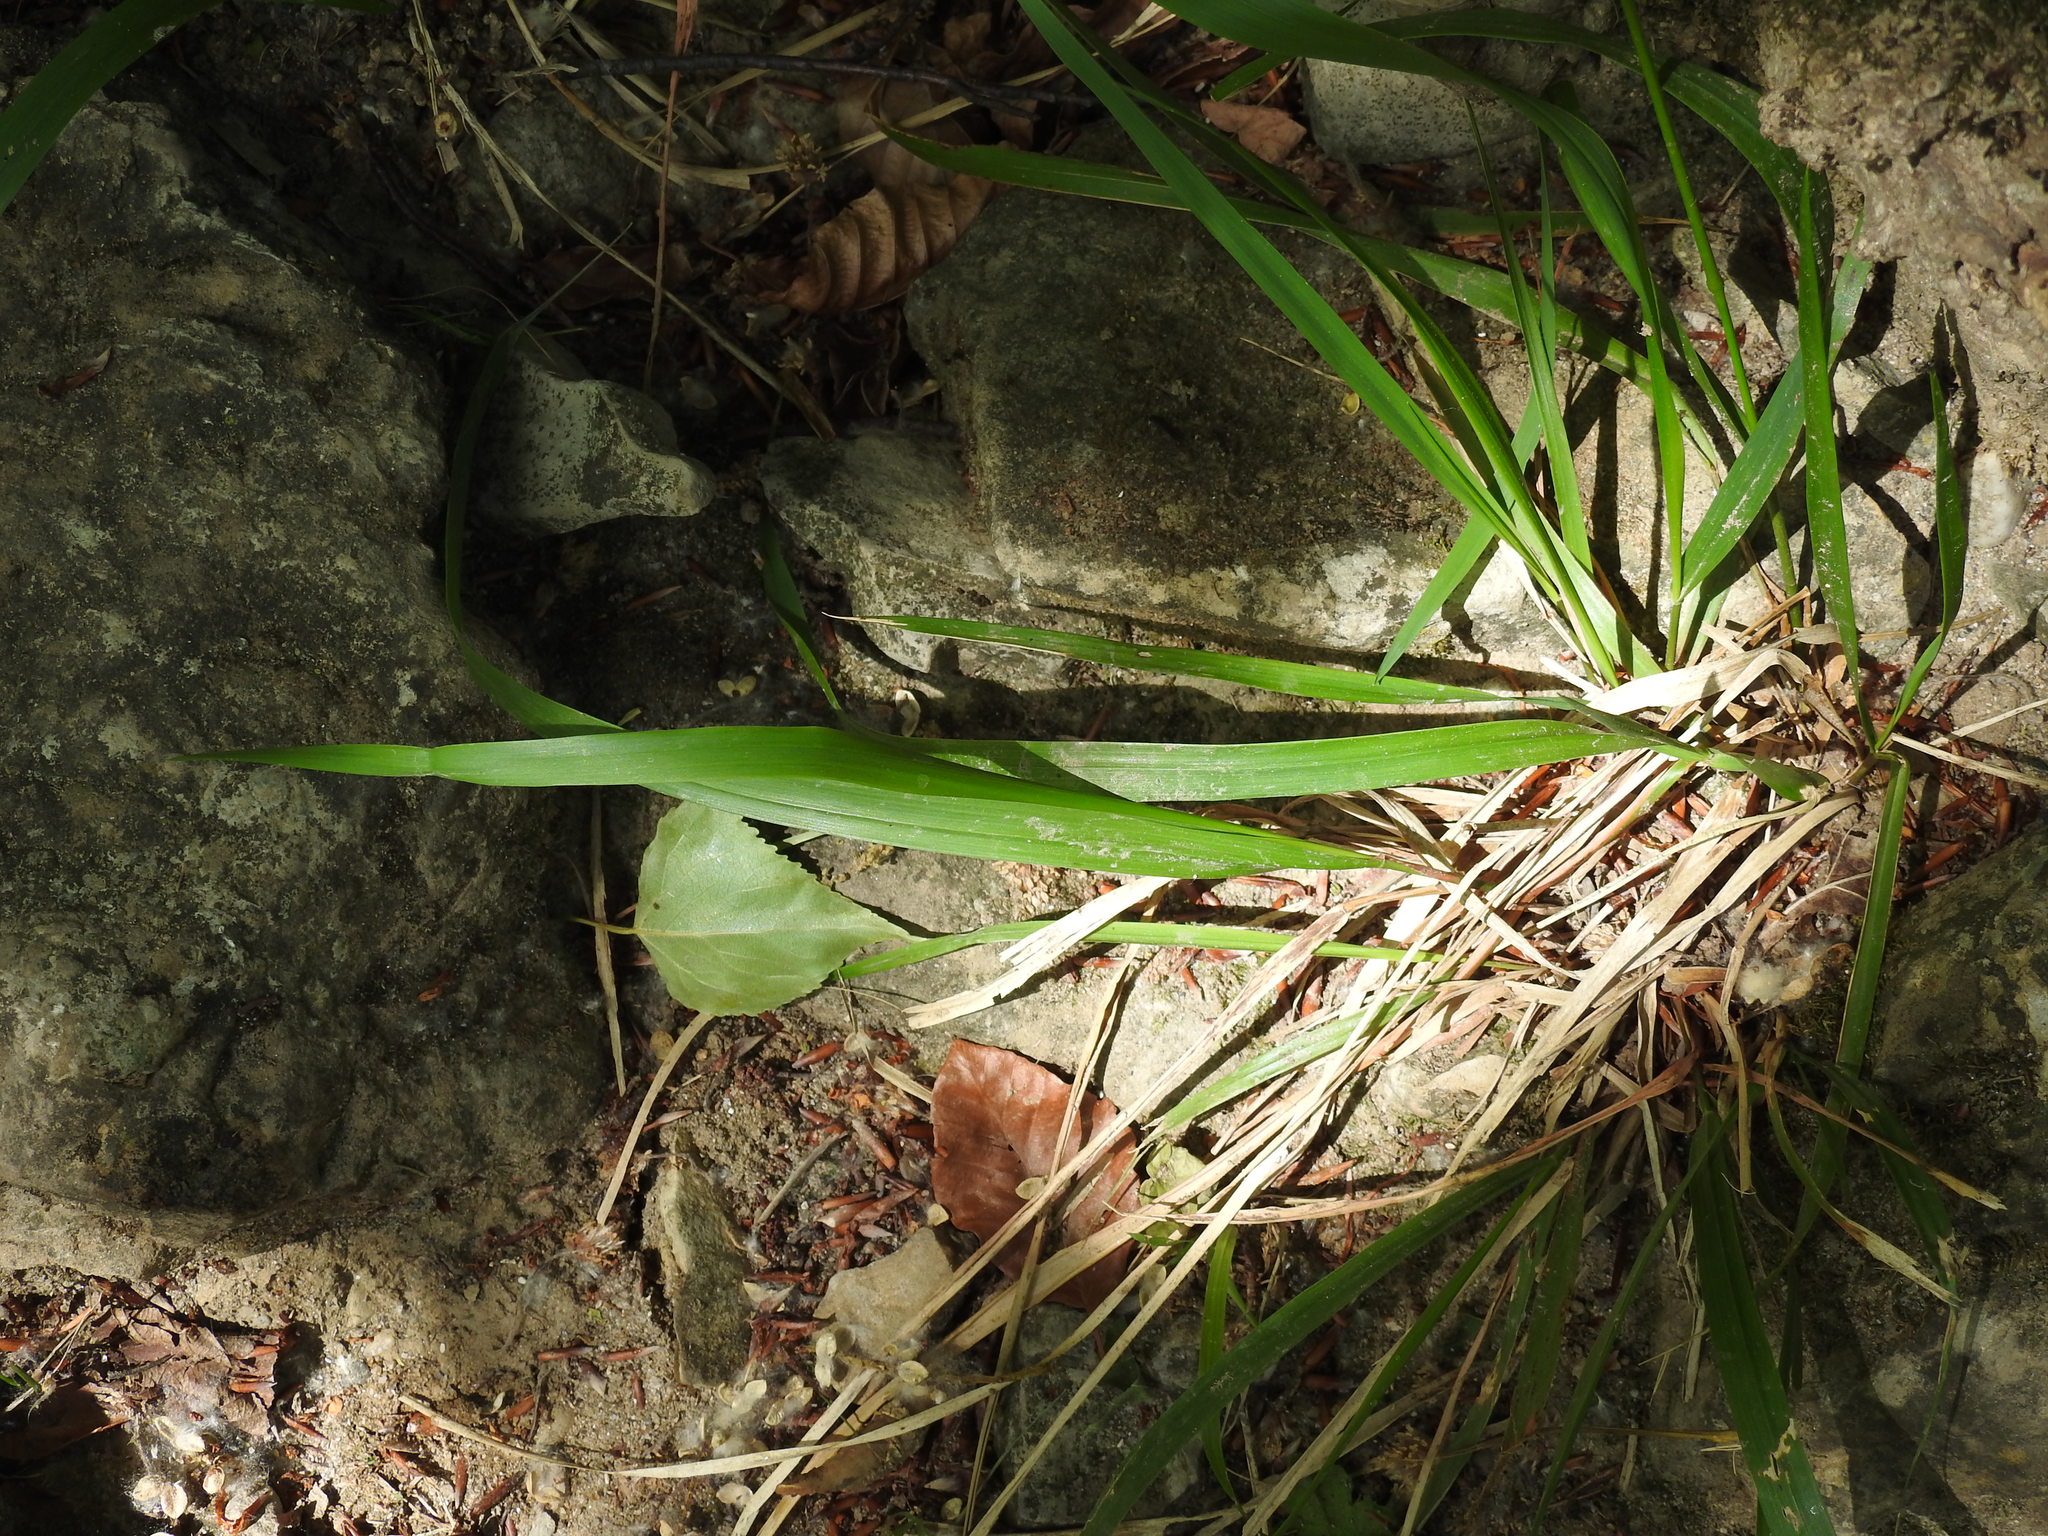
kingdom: Plantae
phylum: Tracheophyta
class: Liliopsida
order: Poales
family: Poaceae
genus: Oryzopsis
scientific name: Oryzopsis paradoxa
